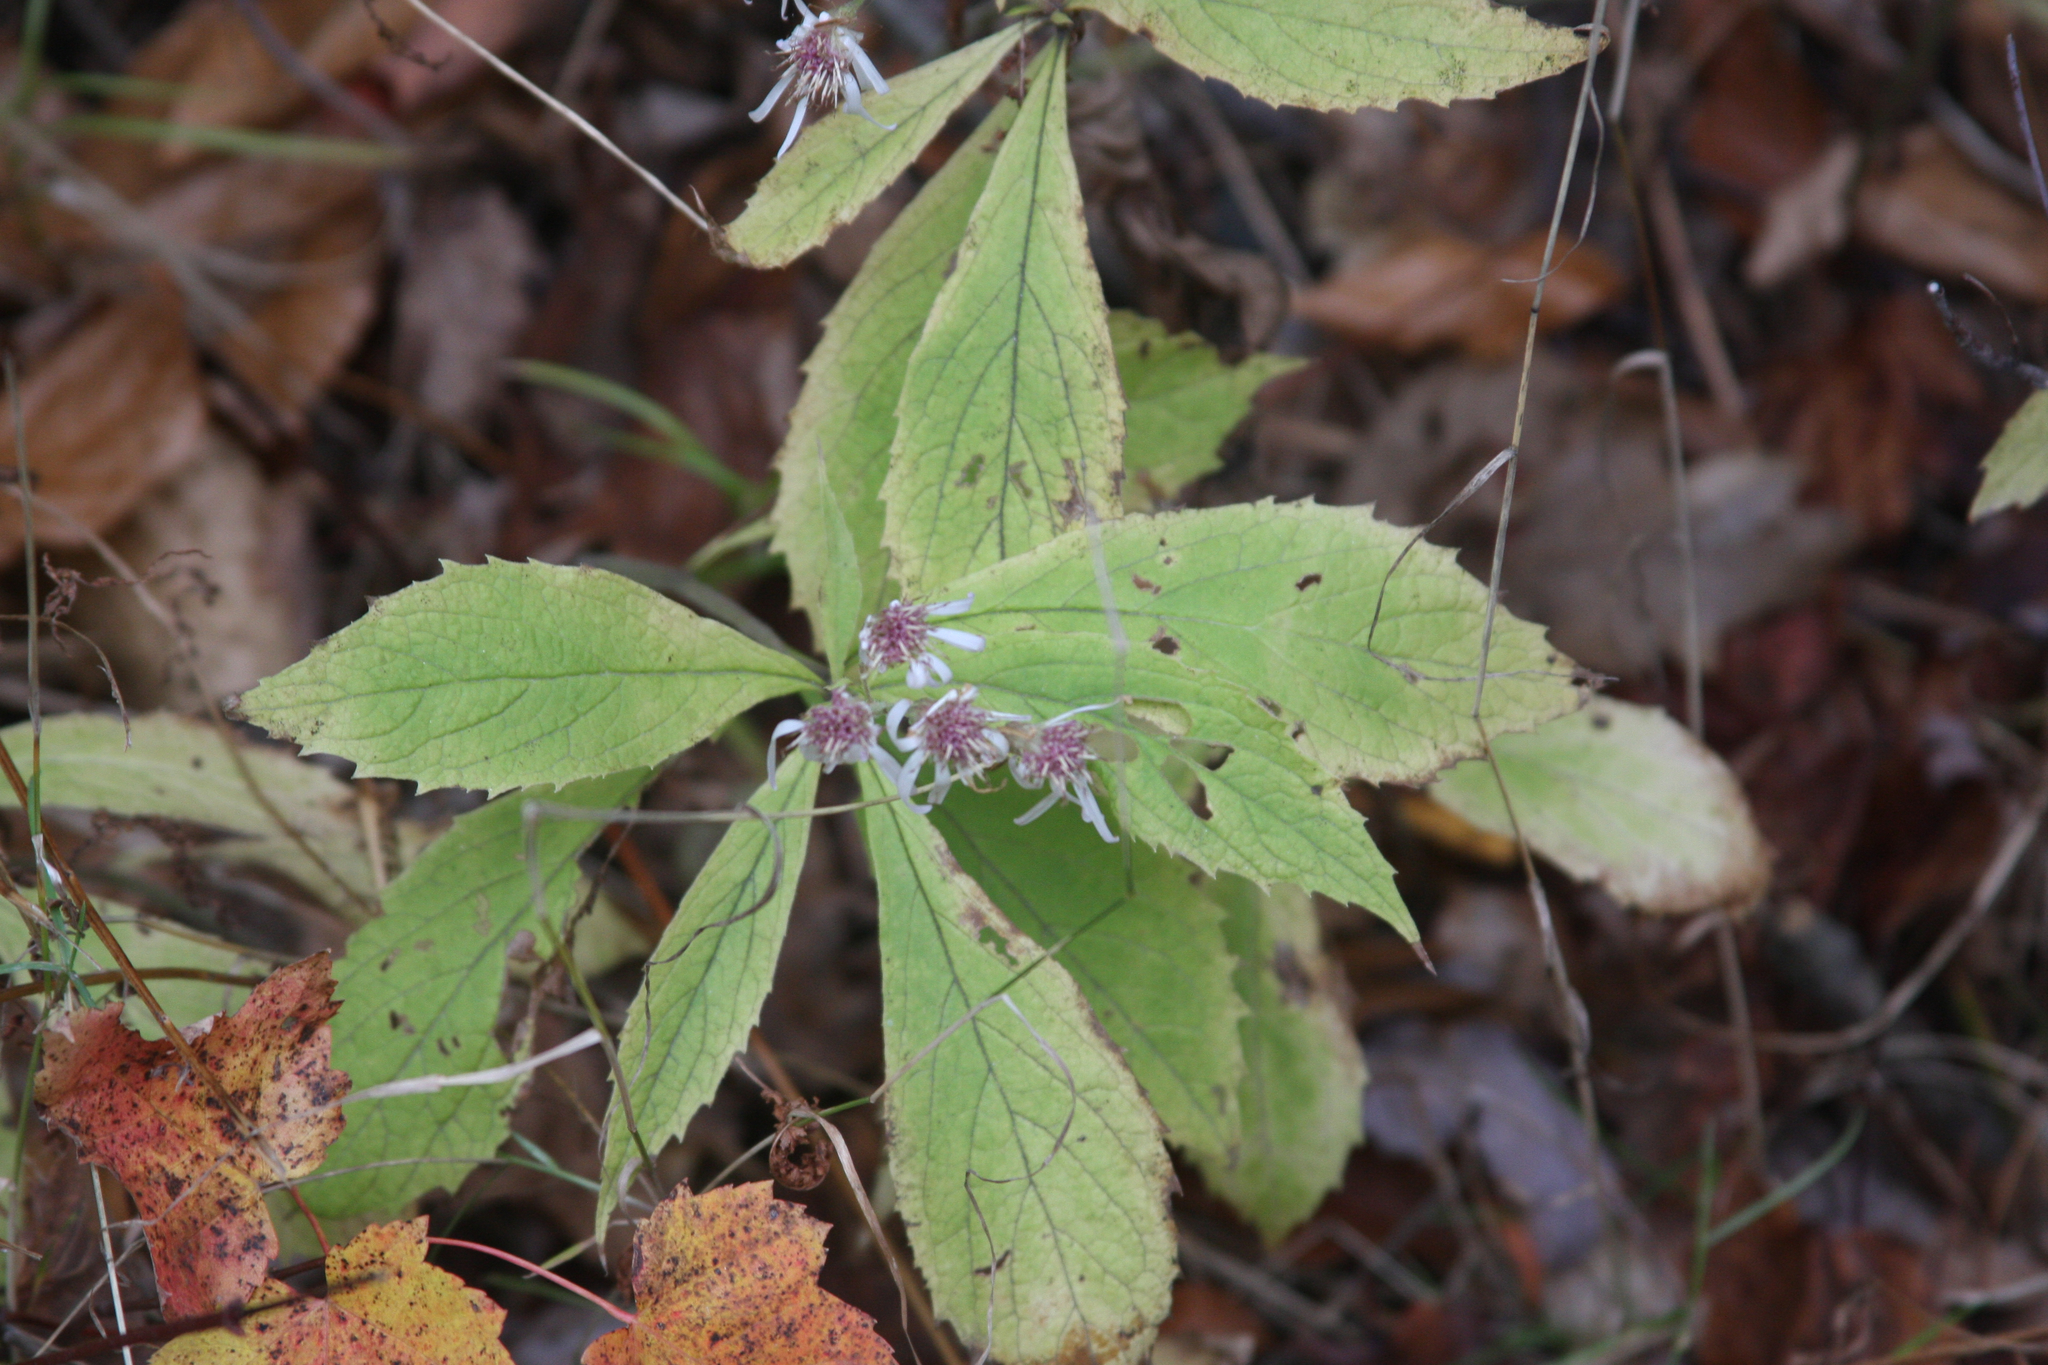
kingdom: Plantae
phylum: Tracheophyta
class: Magnoliopsida
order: Asterales
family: Asteraceae
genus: Oclemena
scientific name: Oclemena acuminata
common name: Mountain aster
